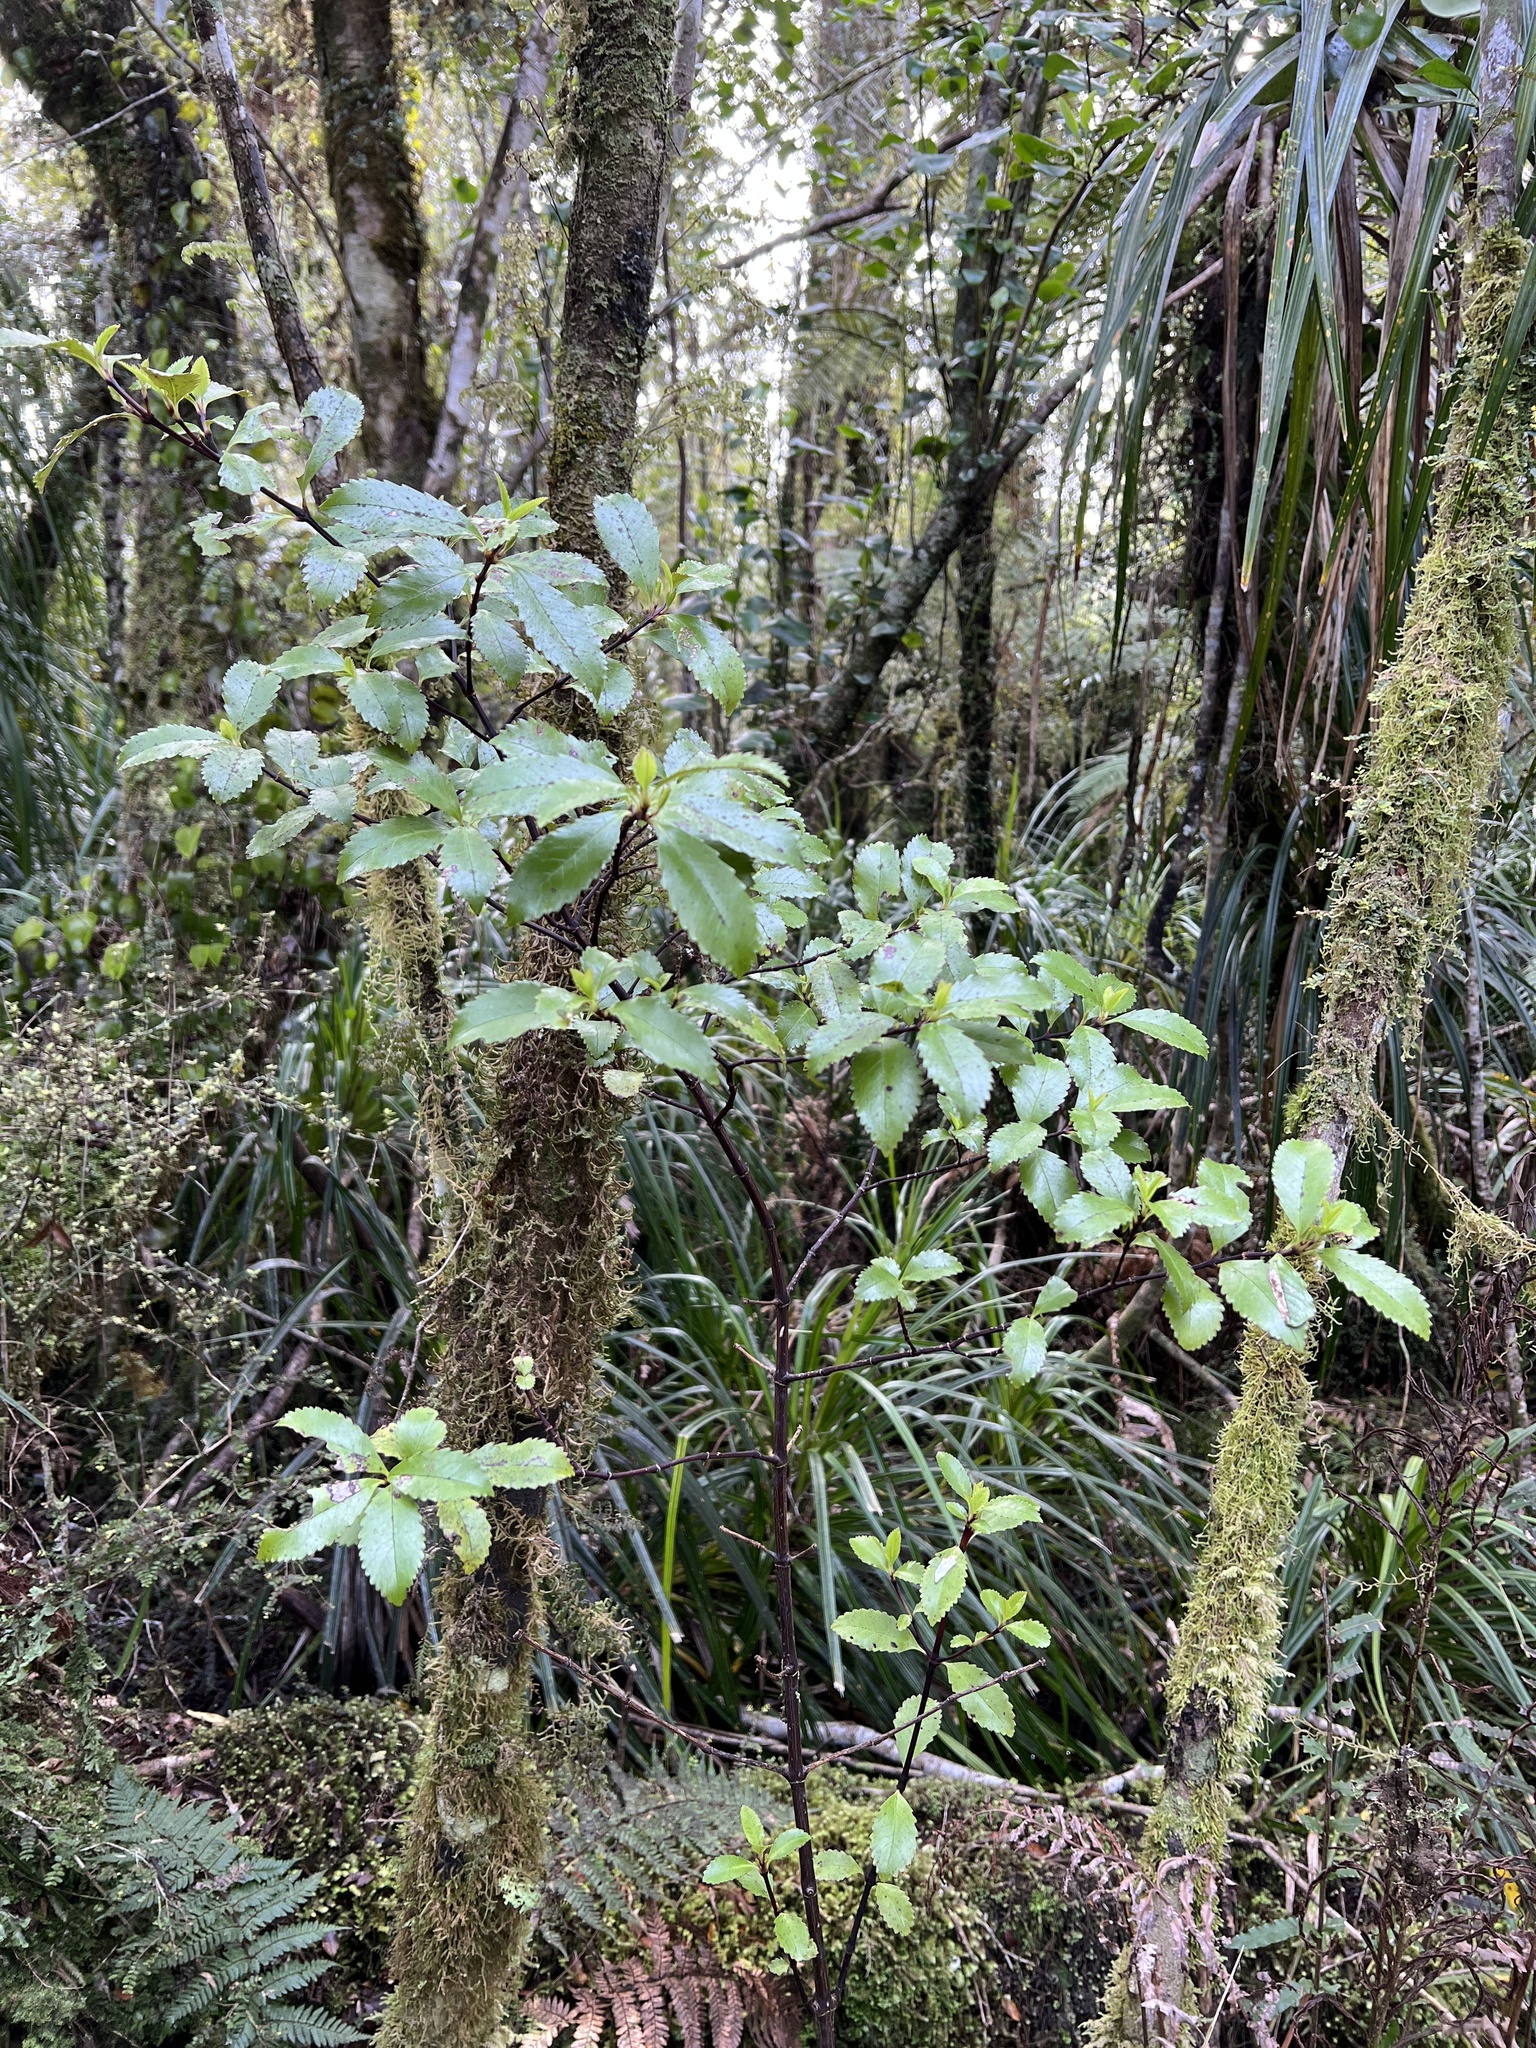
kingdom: Plantae
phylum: Tracheophyta
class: Magnoliopsida
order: Chloranthales
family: Chloranthaceae
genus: Ascarina
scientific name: Ascarina lucida
